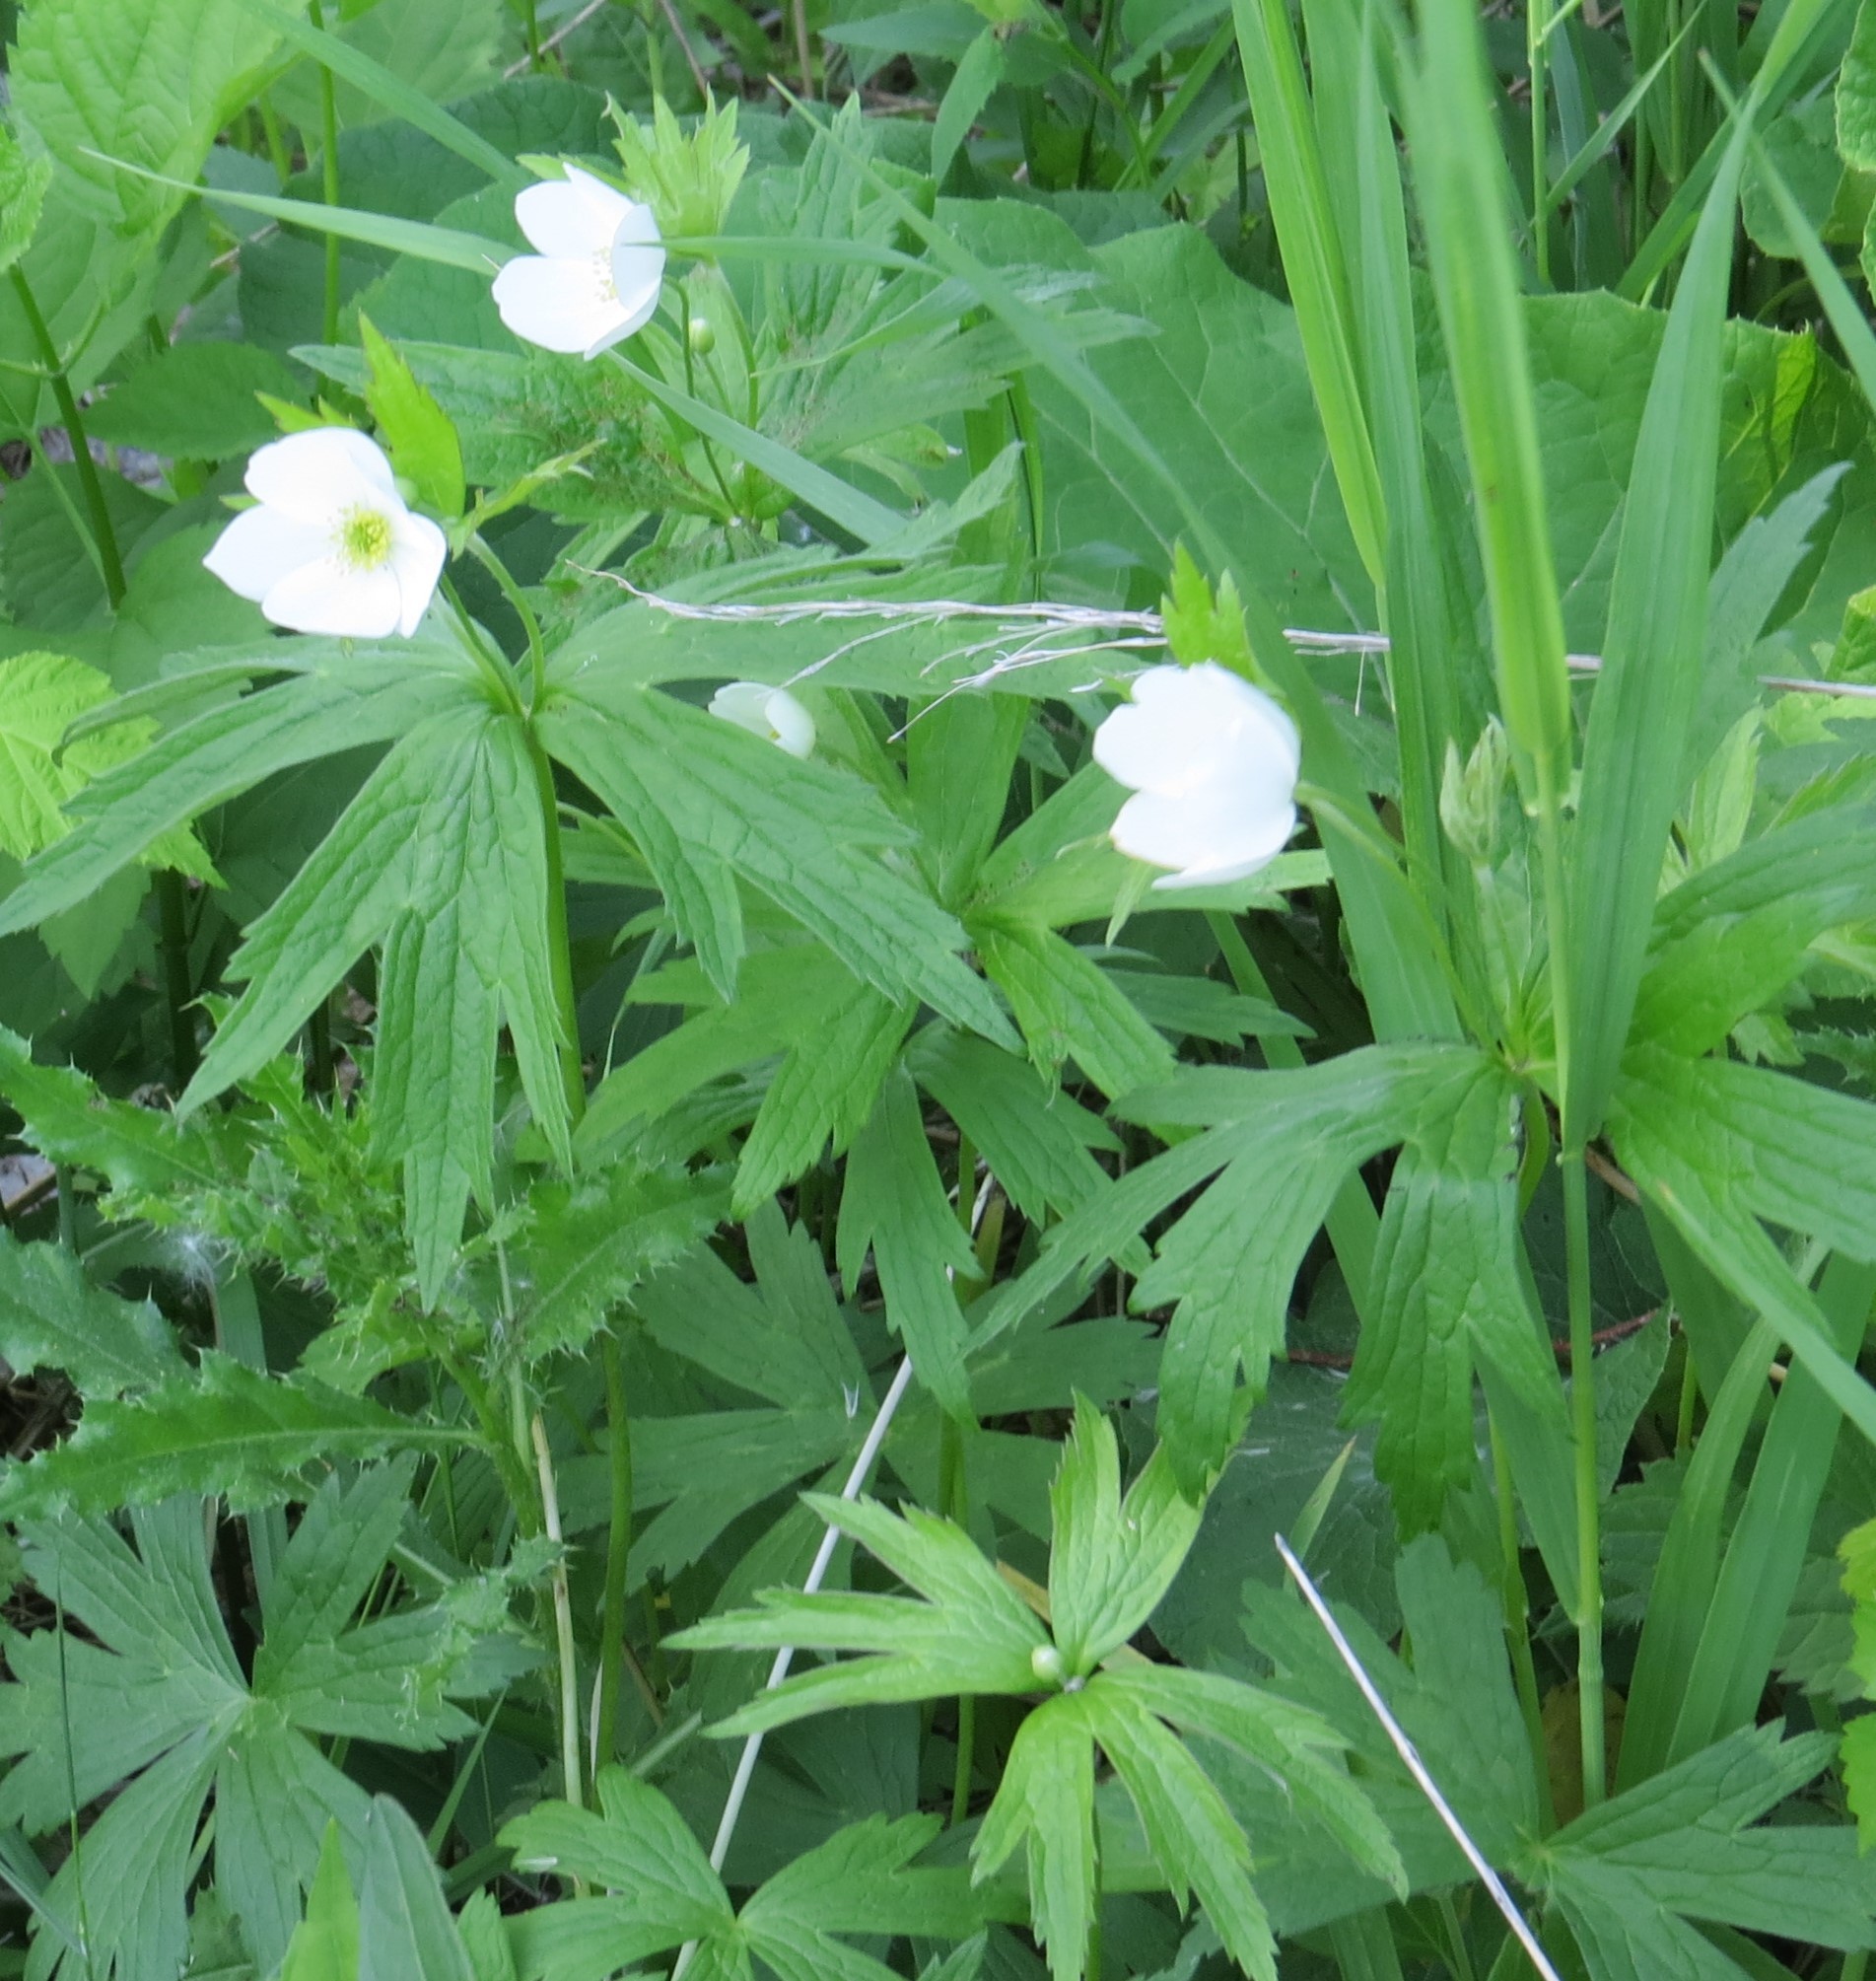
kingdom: Plantae
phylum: Tracheophyta
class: Magnoliopsida
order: Ranunculales
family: Ranunculaceae
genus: Anemonastrum
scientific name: Anemonastrum canadense
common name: Canada anemone
